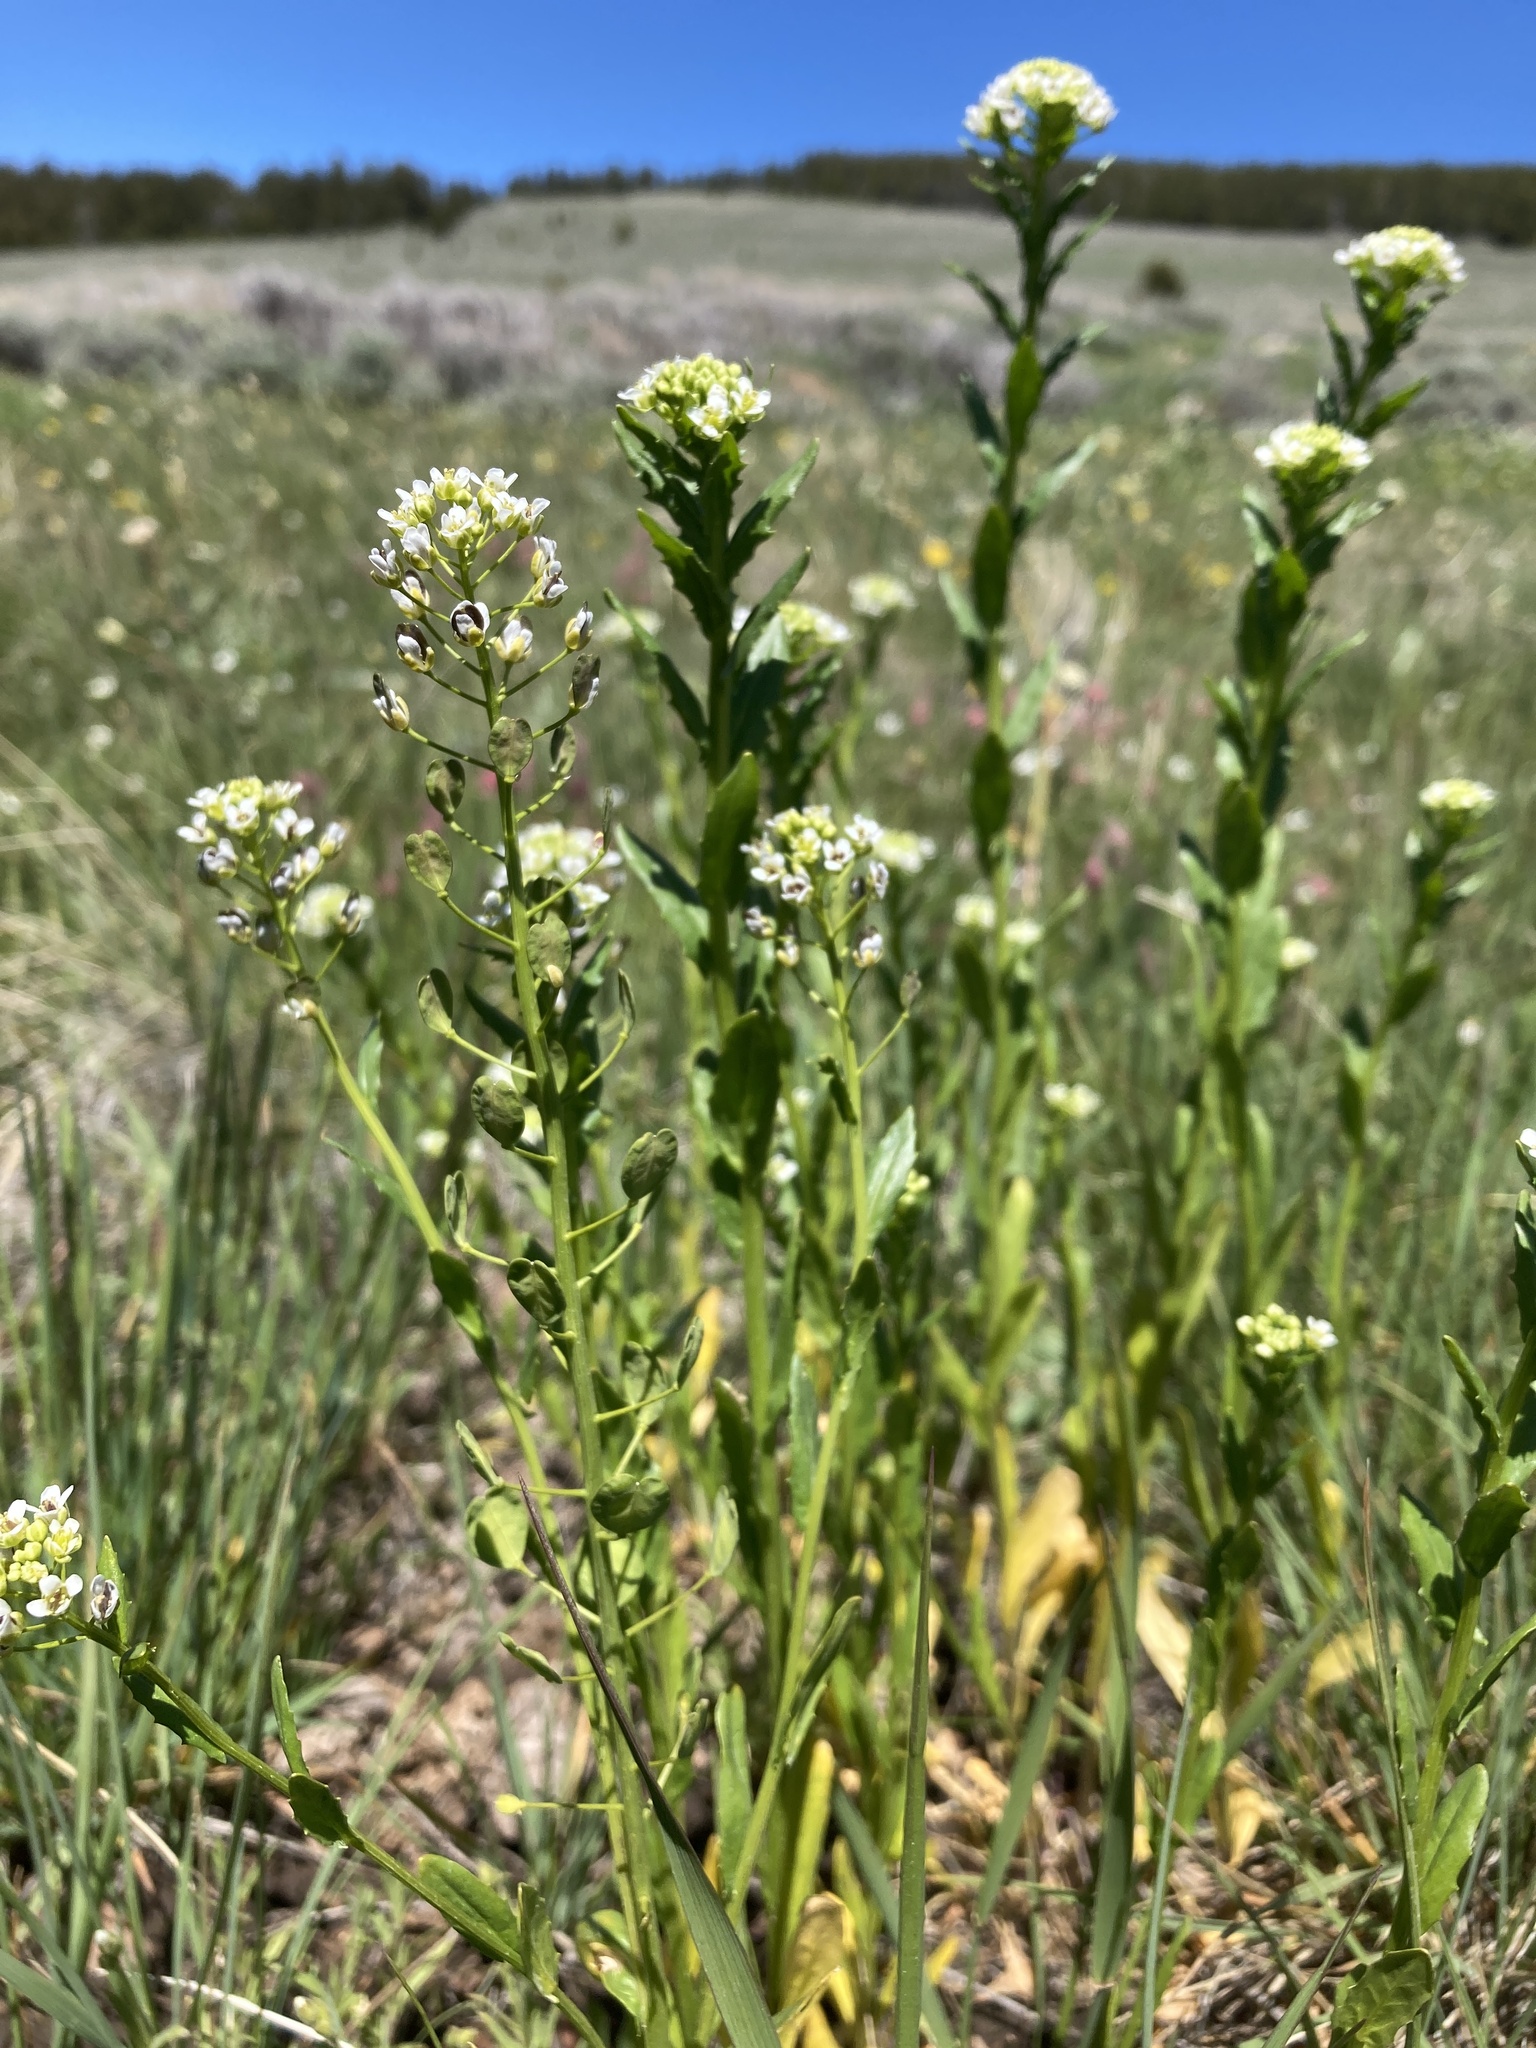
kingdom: Plantae
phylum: Tracheophyta
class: Magnoliopsida
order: Brassicales
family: Brassicaceae
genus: Thlaspi
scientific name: Thlaspi arvense
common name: Field pennycress
